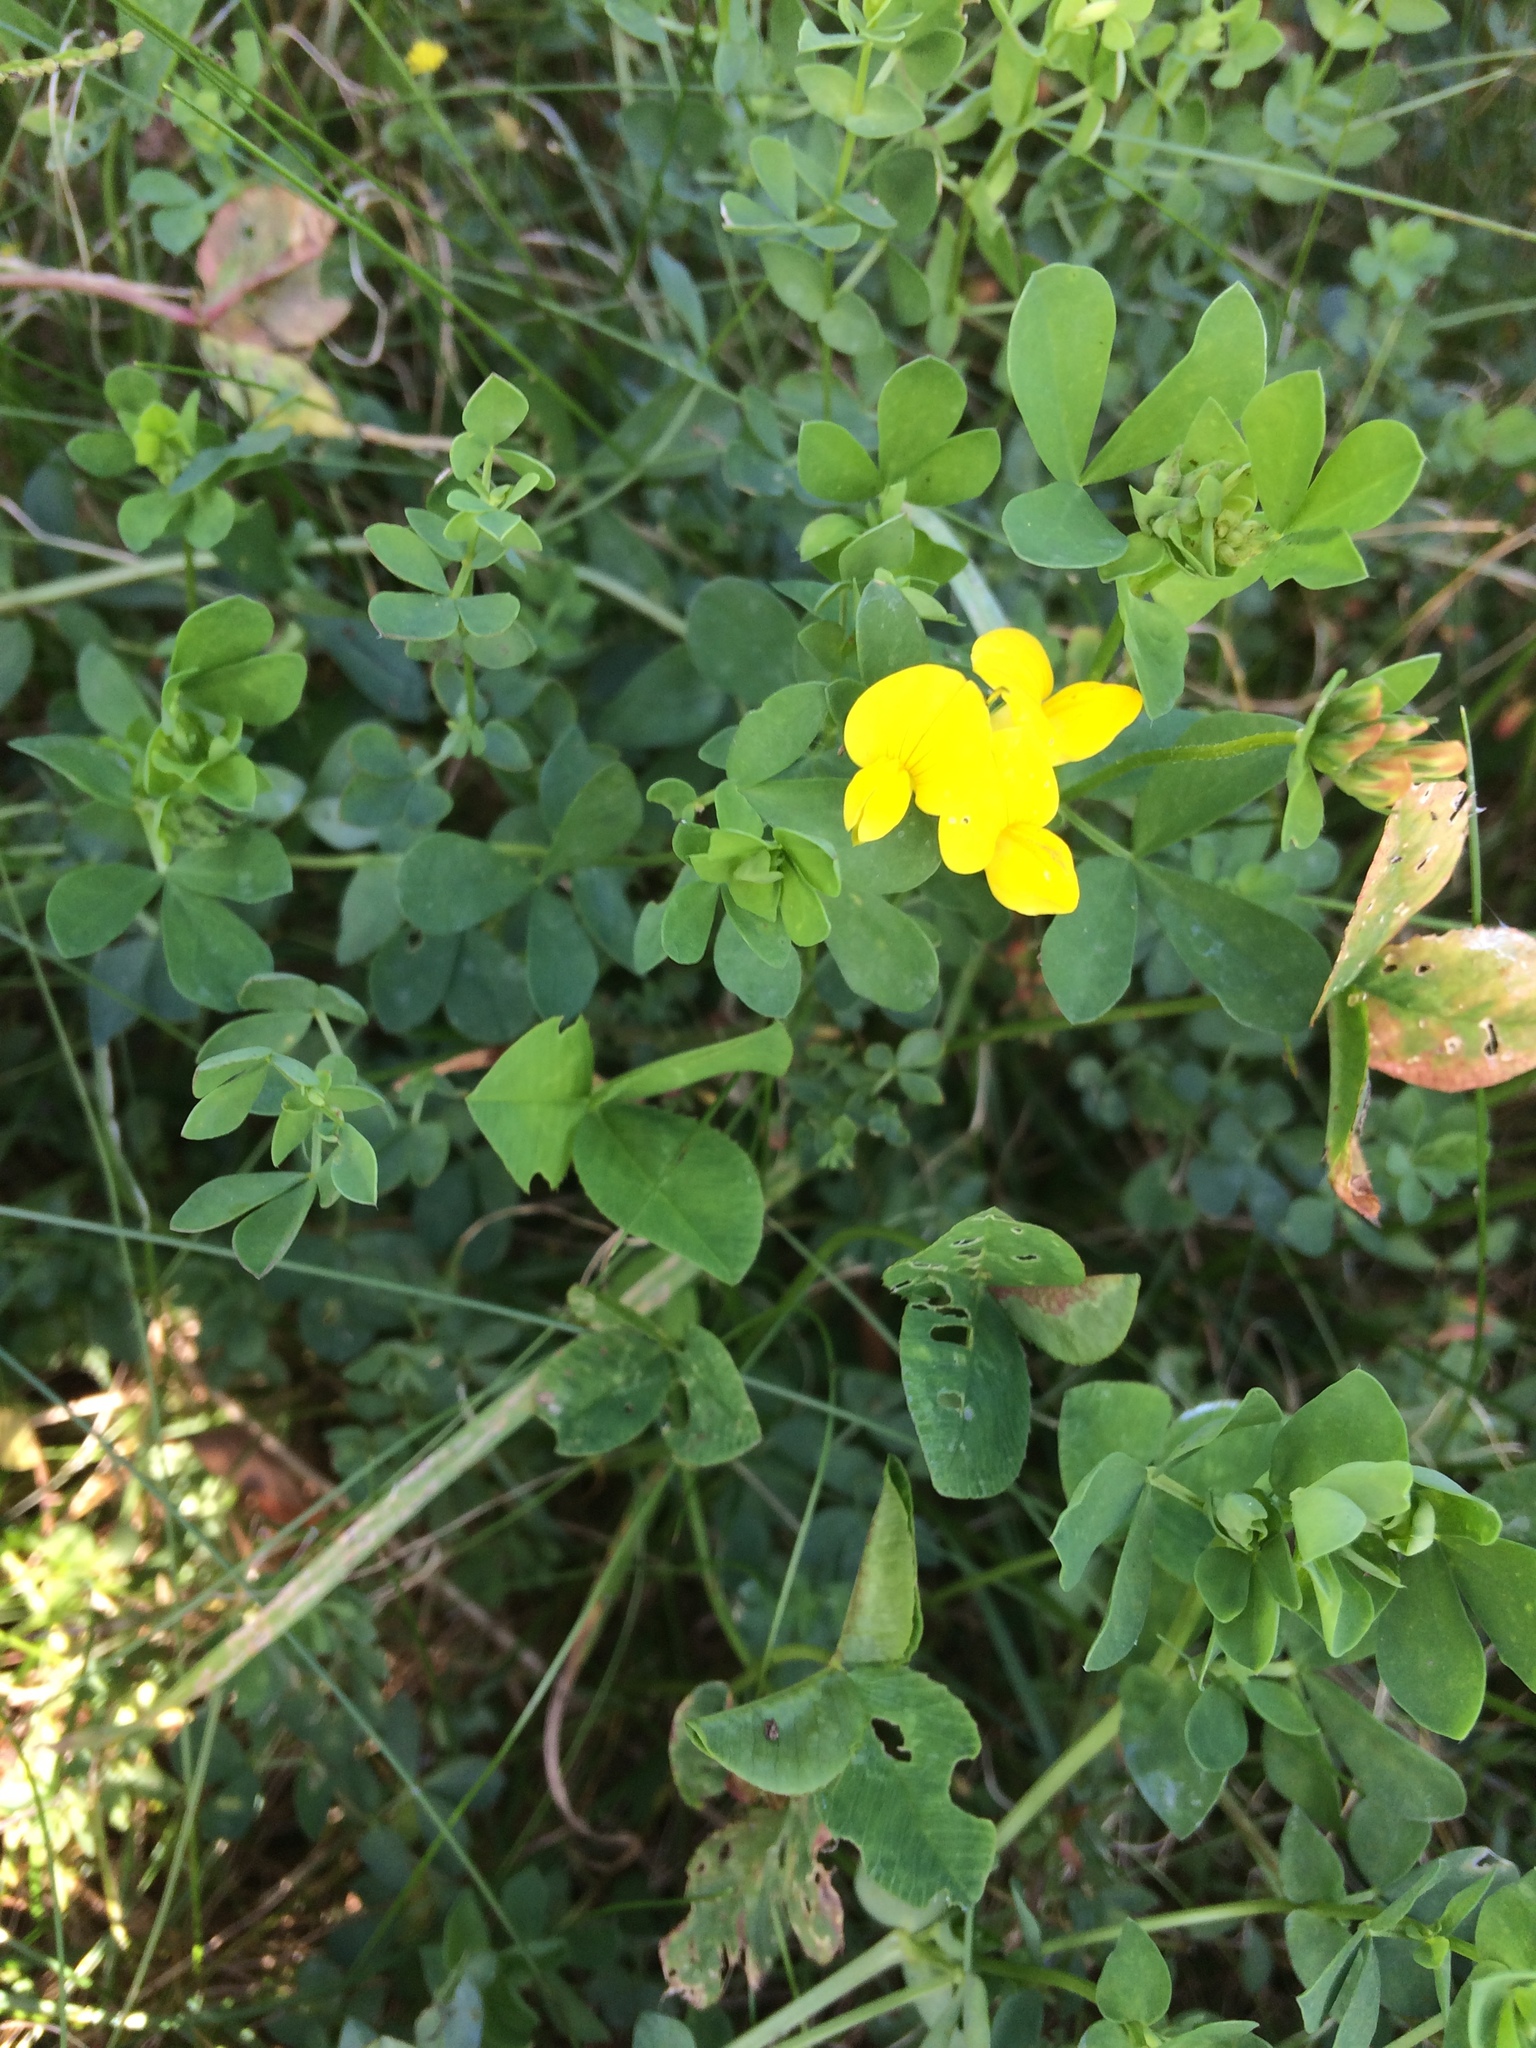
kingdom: Plantae
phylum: Tracheophyta
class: Magnoliopsida
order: Fabales
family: Fabaceae
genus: Lotus
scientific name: Lotus corniculatus
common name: Common bird's-foot-trefoil
